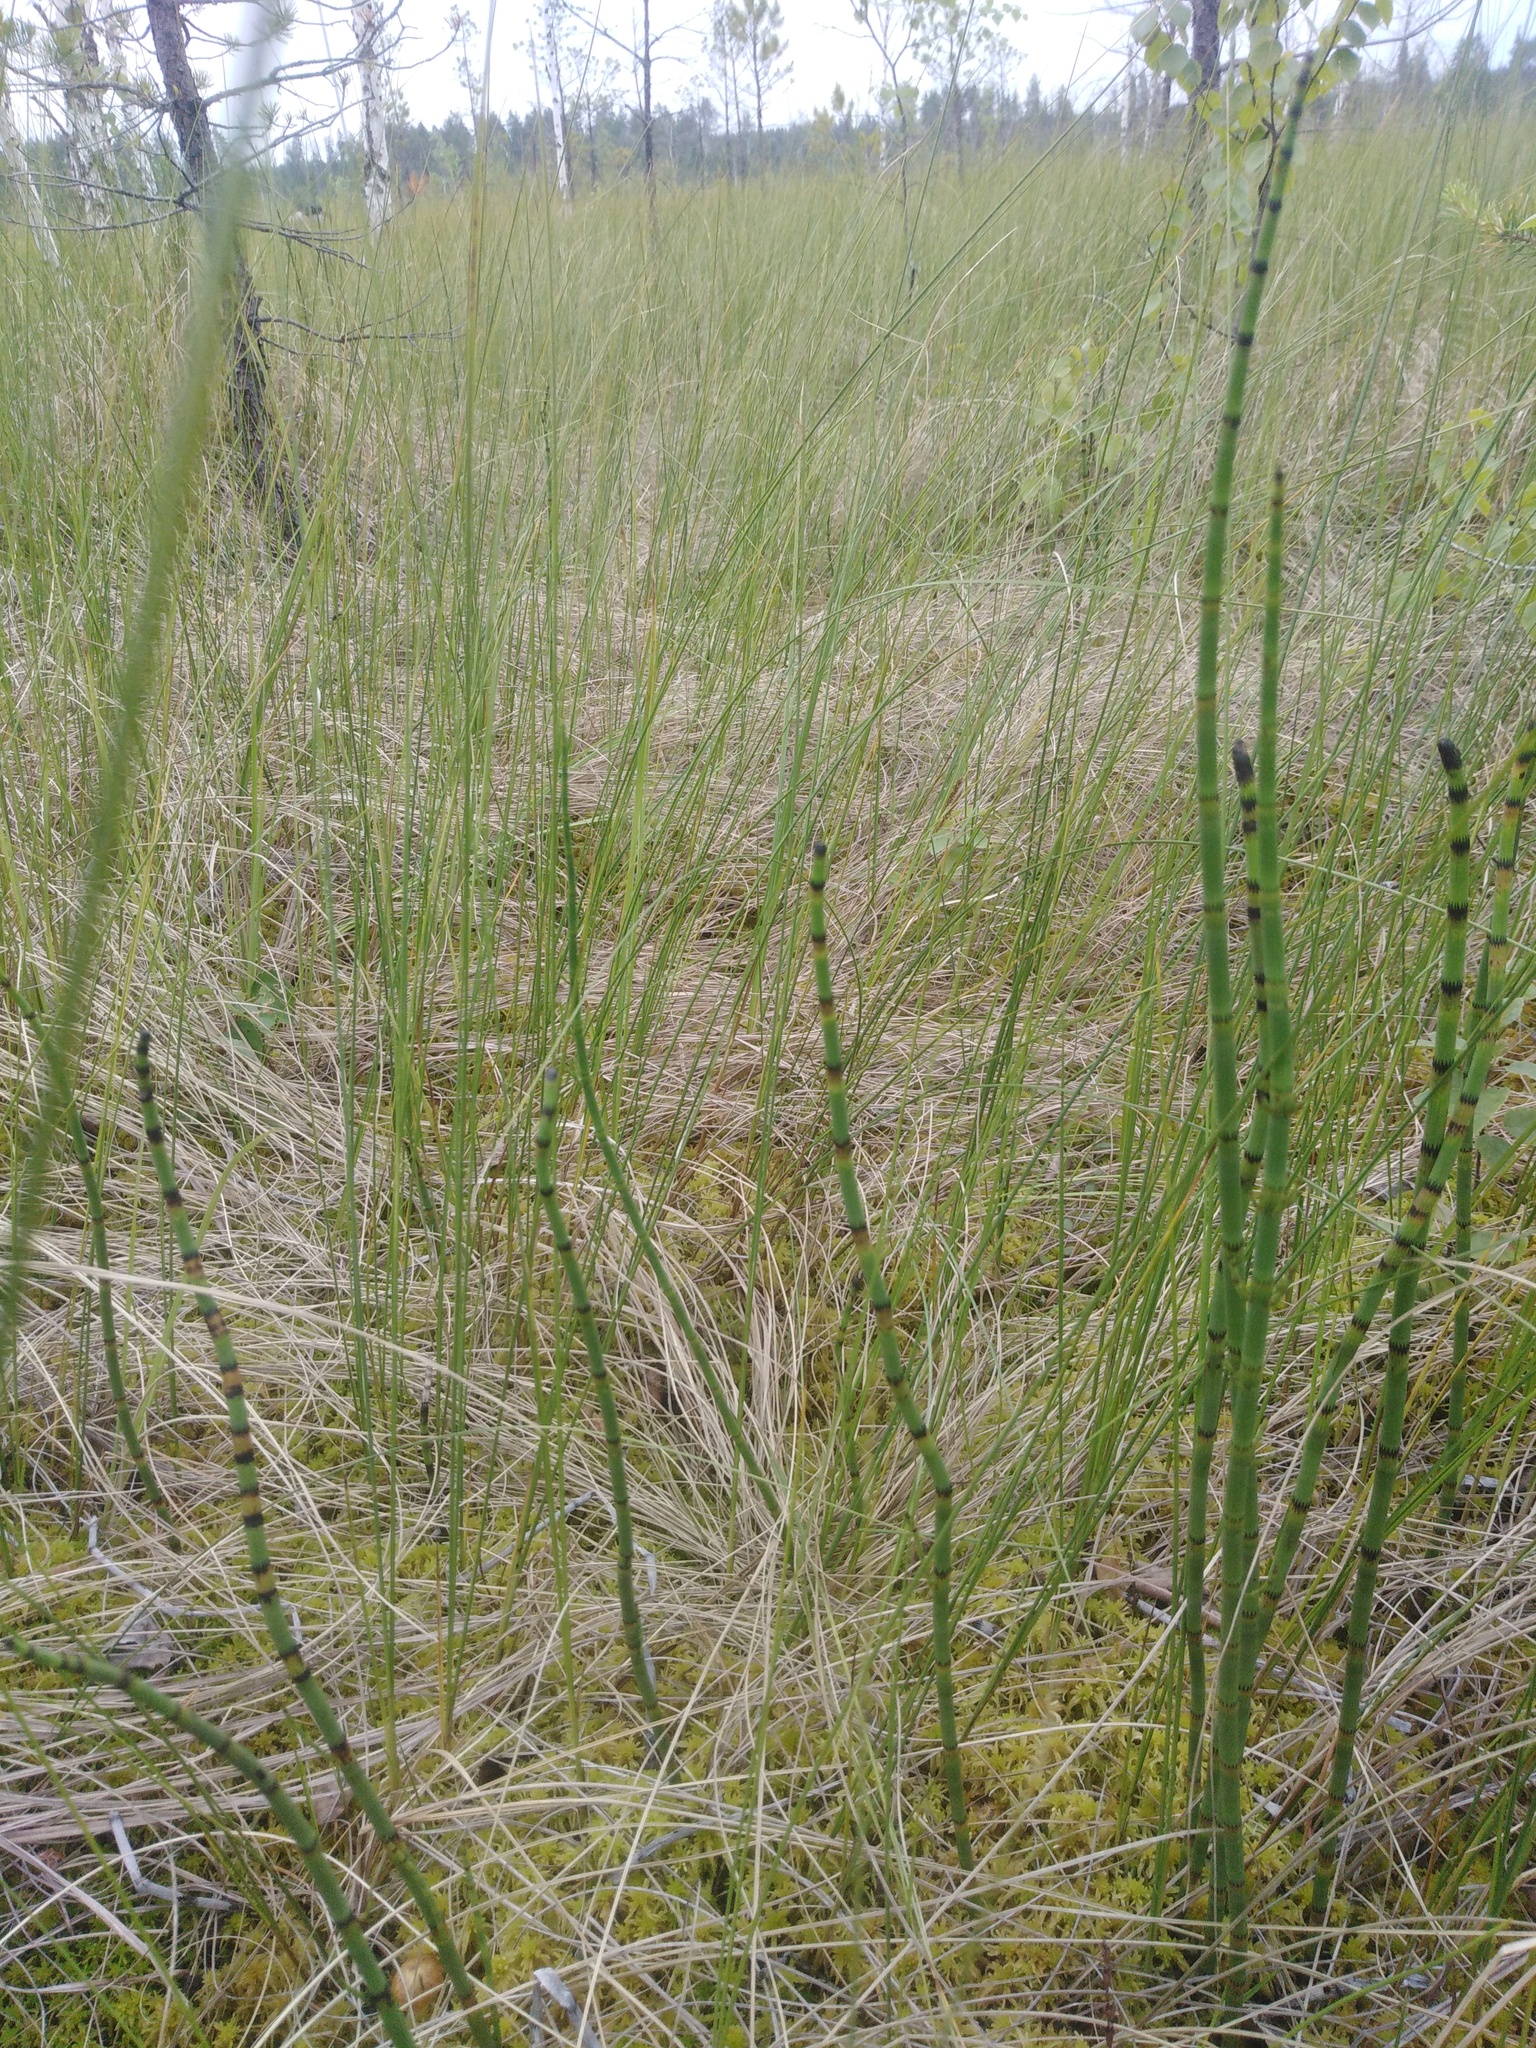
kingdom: Plantae
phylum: Tracheophyta
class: Polypodiopsida
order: Equisetales
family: Equisetaceae
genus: Equisetum
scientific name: Equisetum fluviatile
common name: Water horsetail
